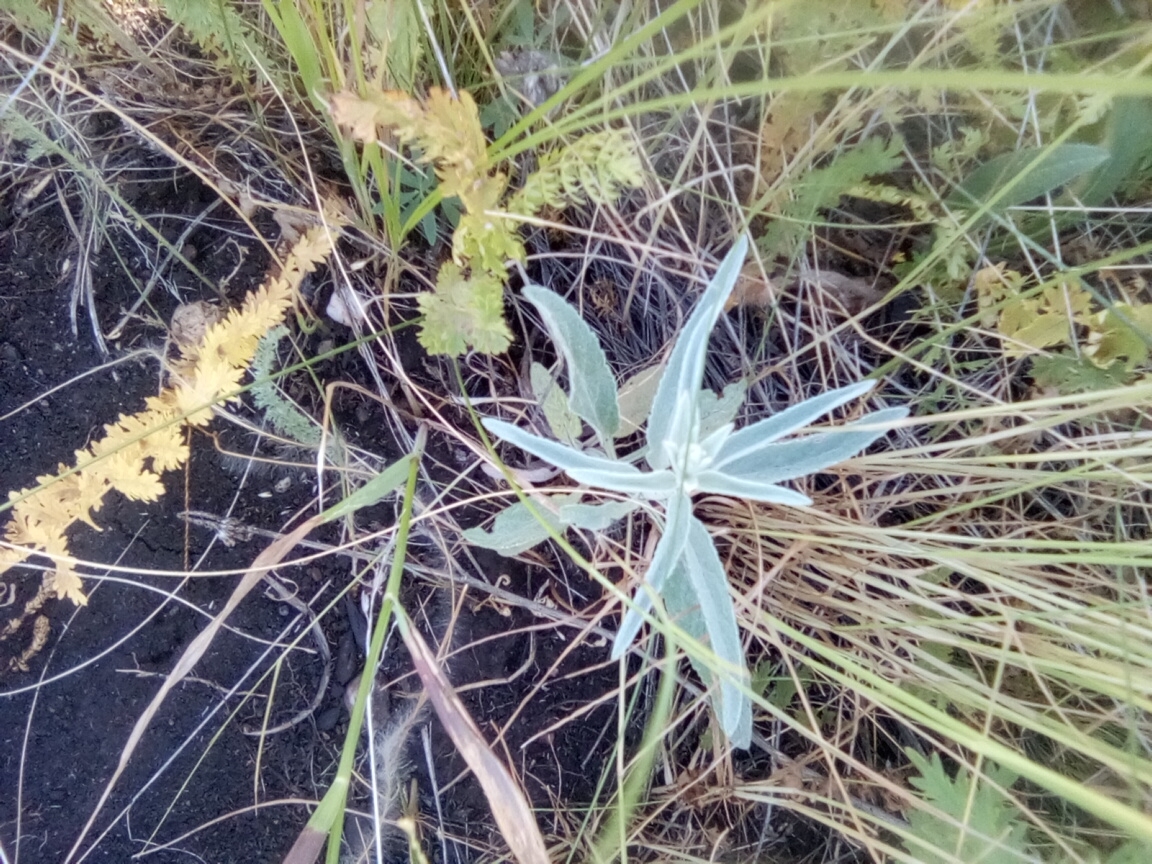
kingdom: Plantae
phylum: Tracheophyta
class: Magnoliopsida
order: Lamiales
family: Plantaginaceae
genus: Veronica
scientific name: Veronica incana
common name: Silver speedwell
